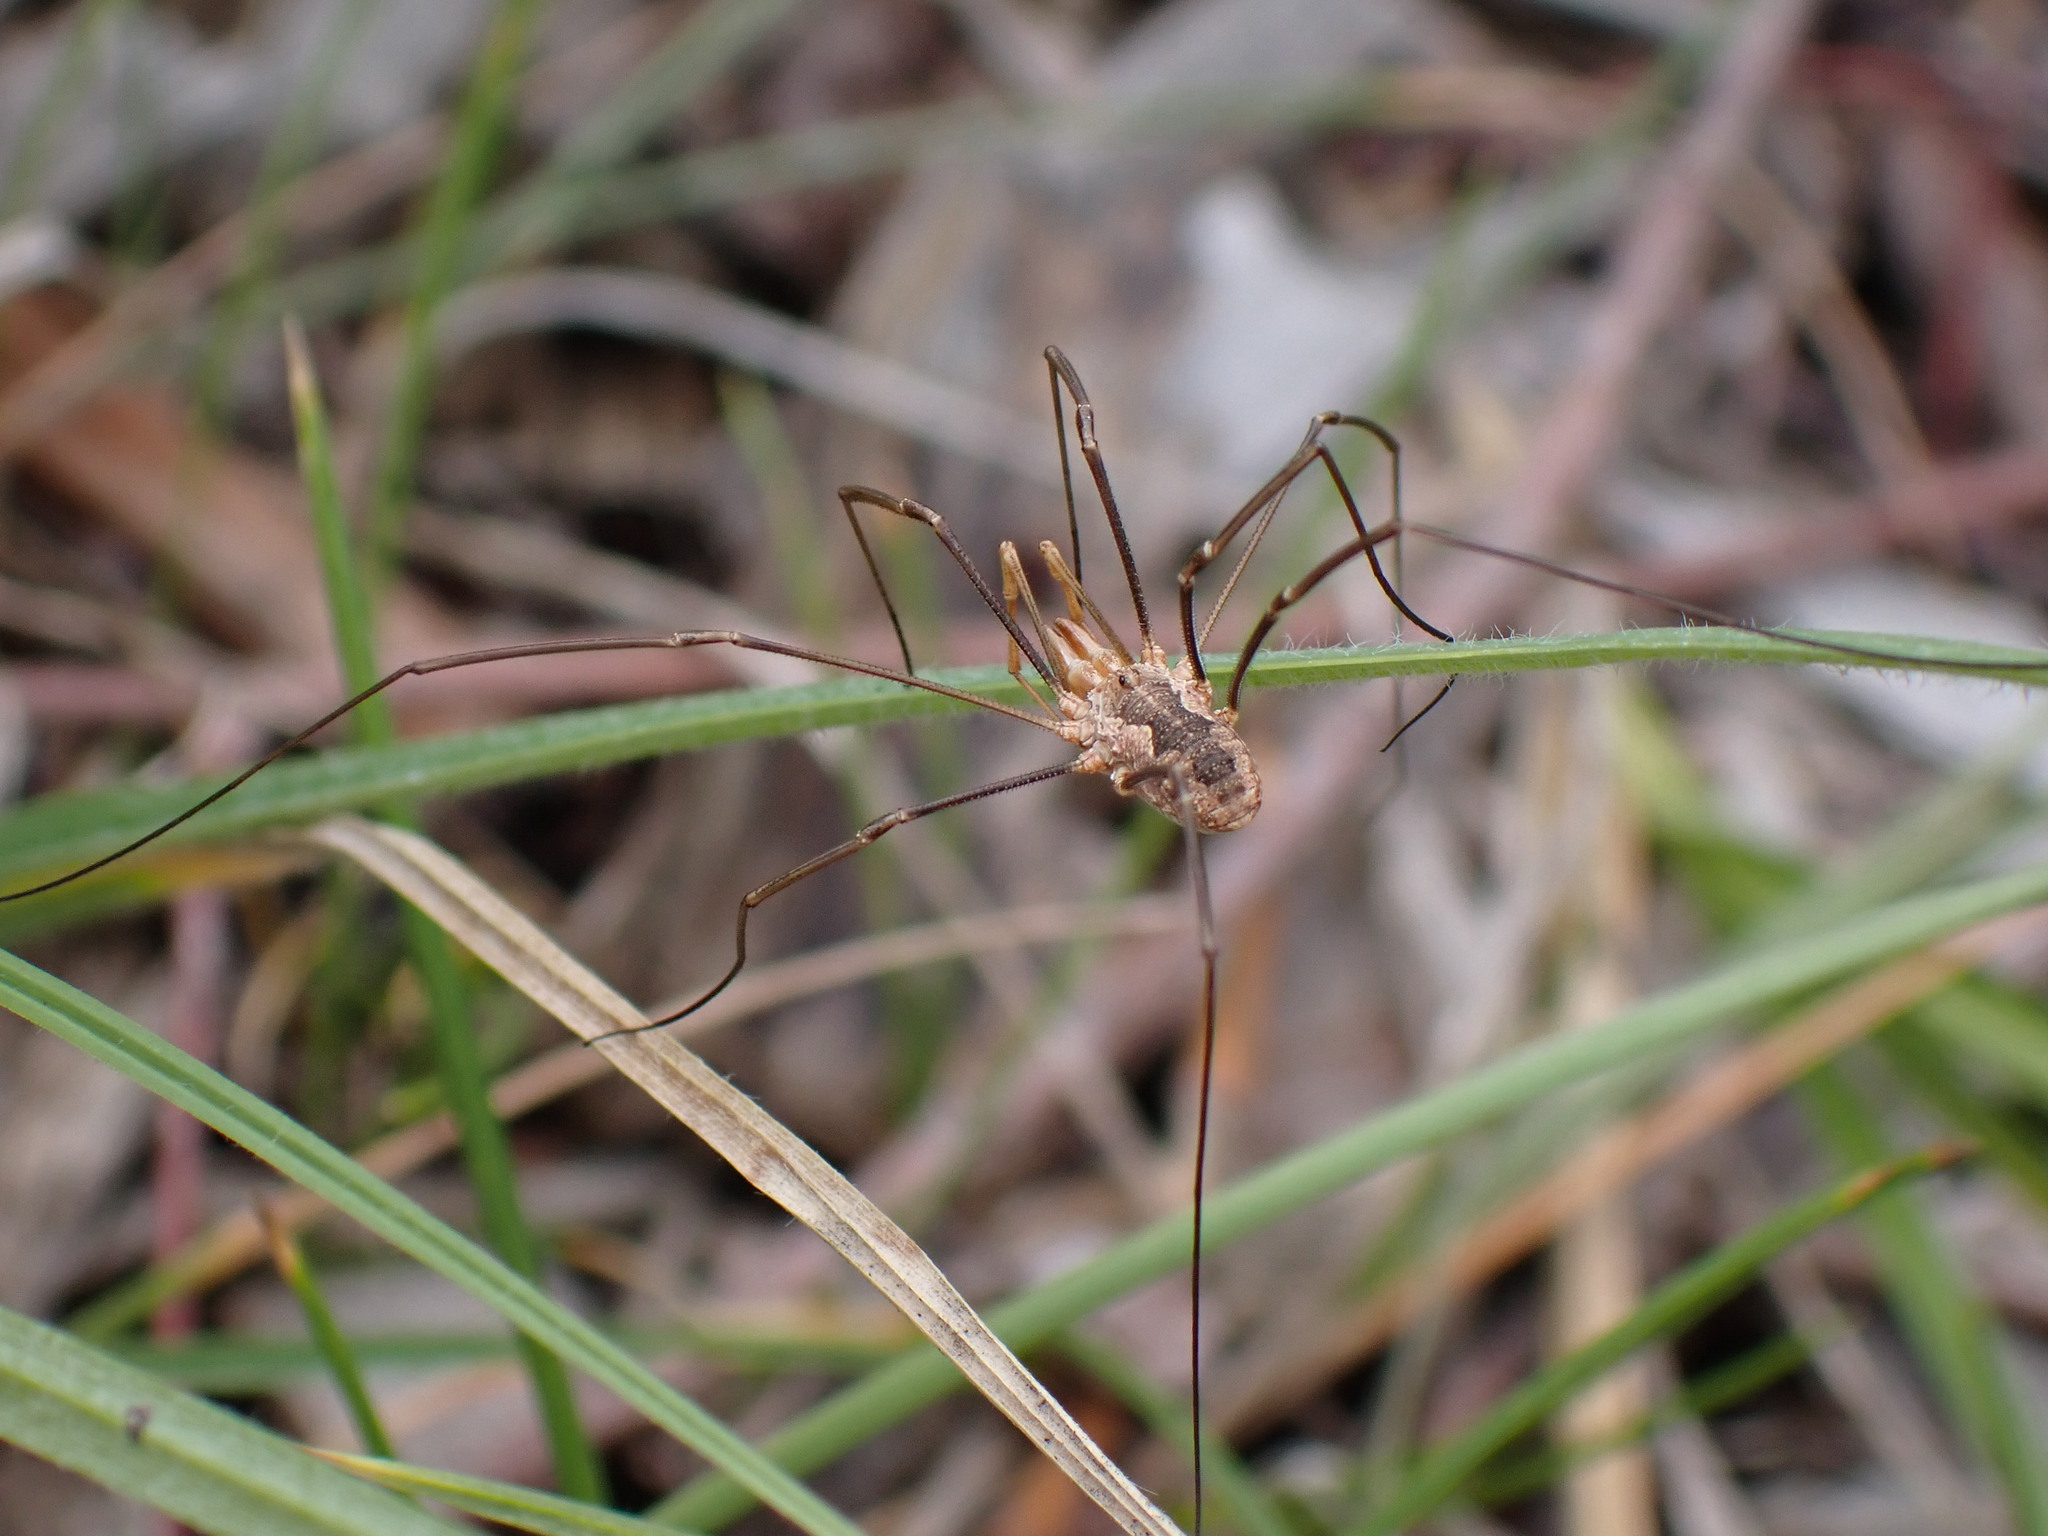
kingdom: Animalia
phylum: Arthropoda
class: Arachnida
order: Opiliones
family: Phalangiidae
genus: Phalangium
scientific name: Phalangium opilio
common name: Daddy longleg
